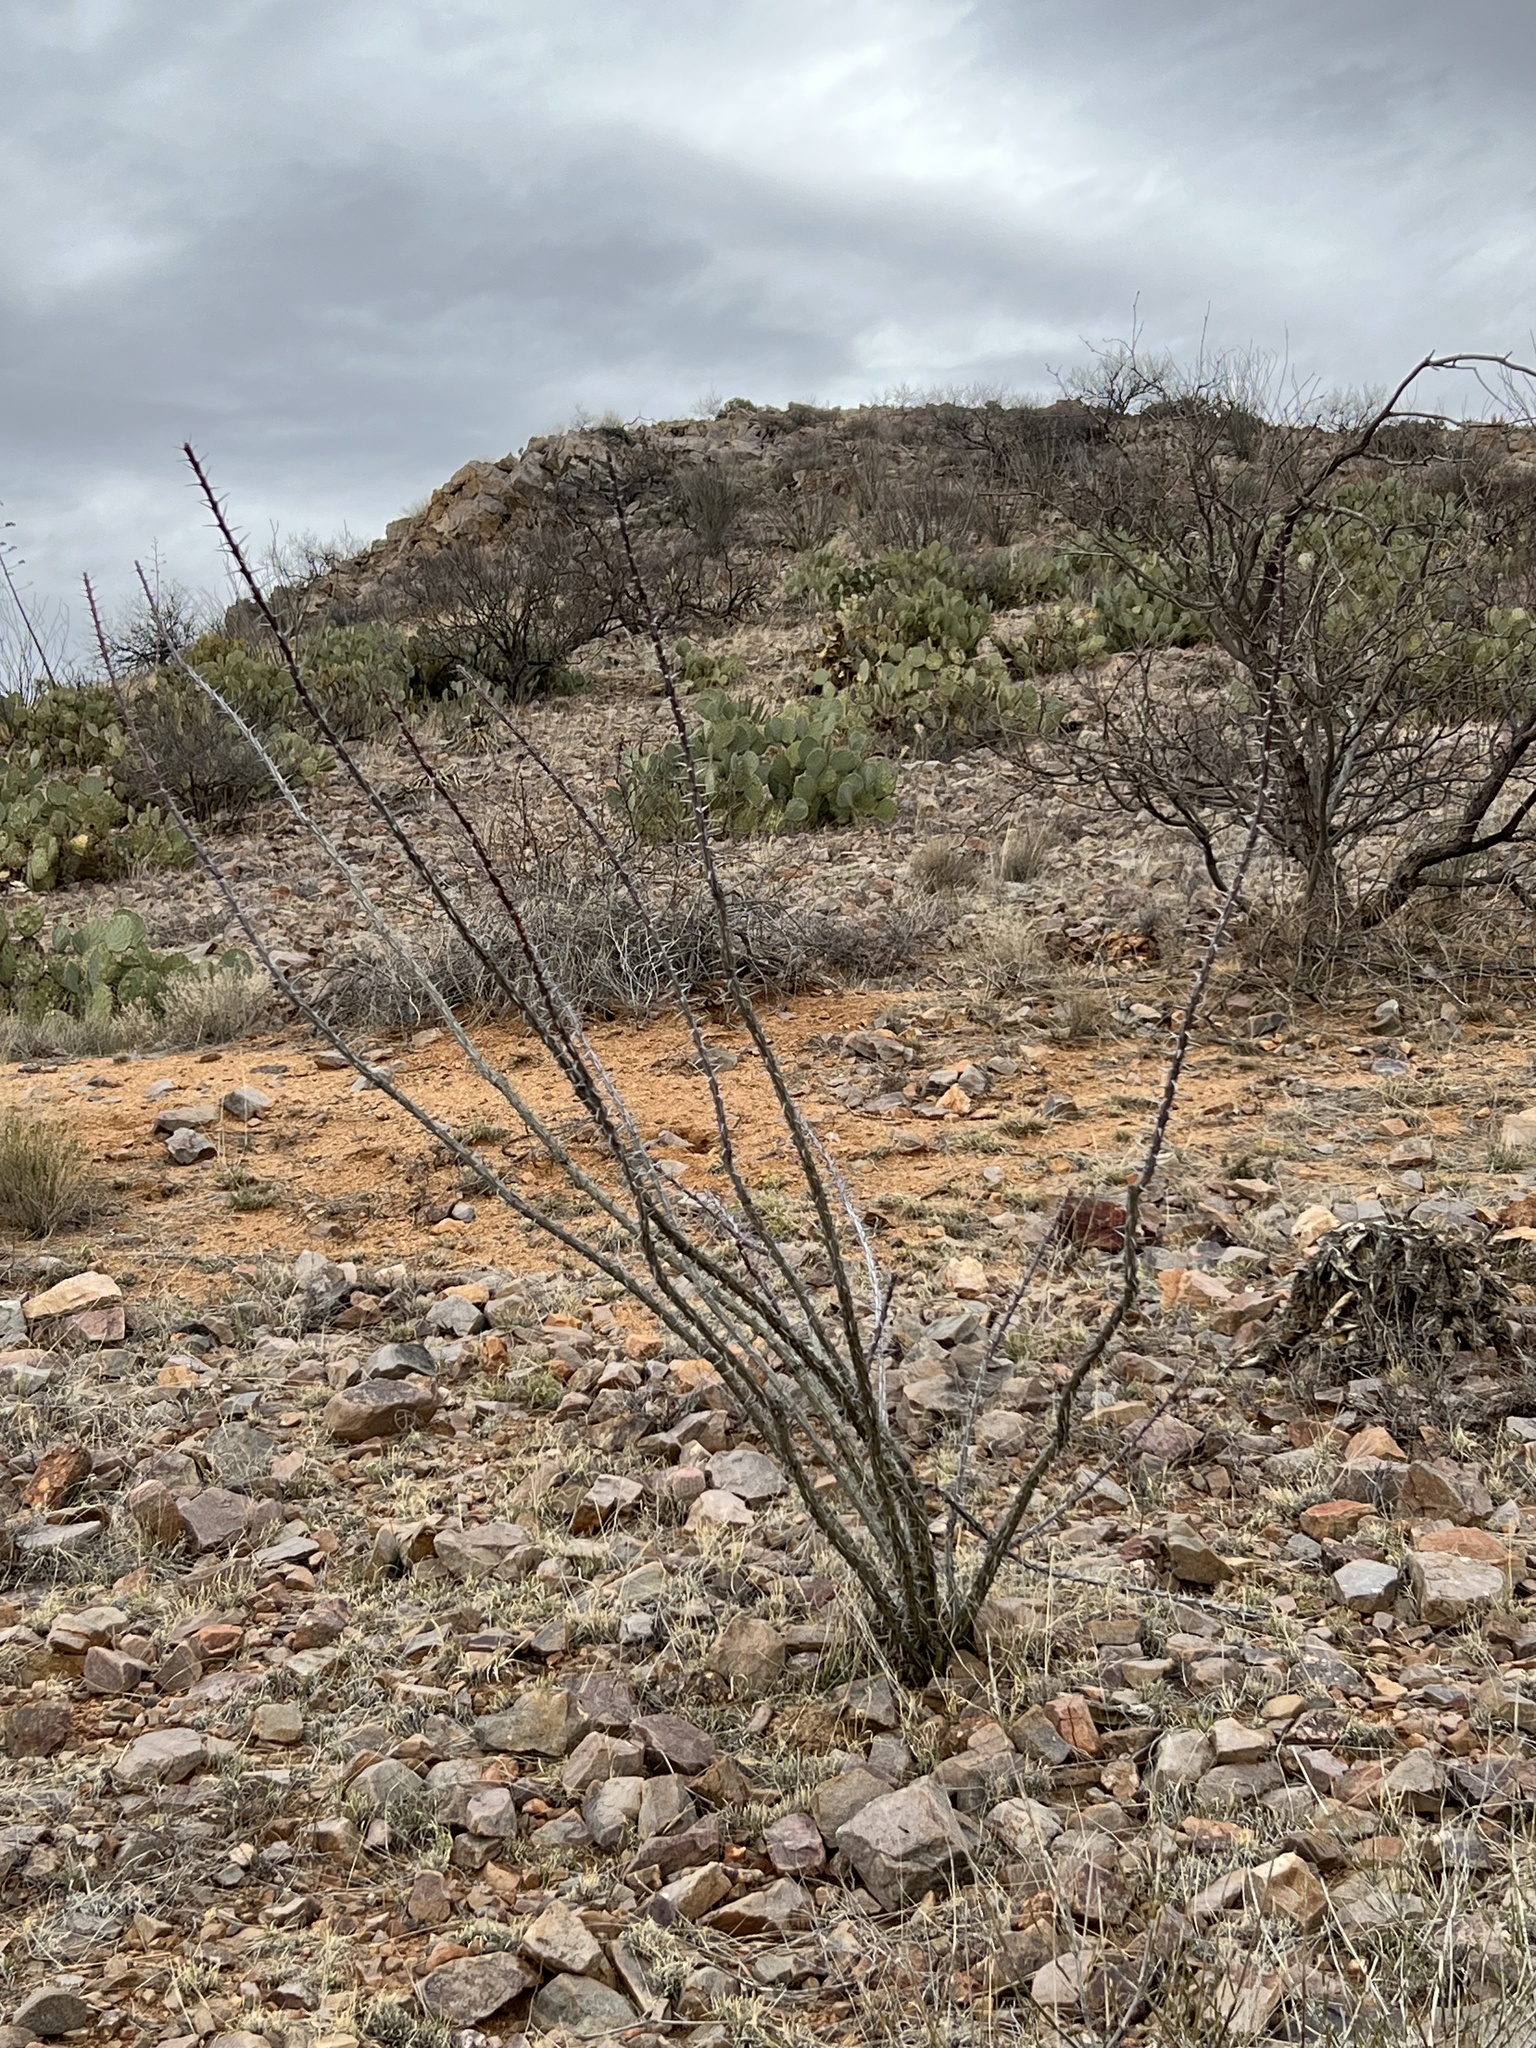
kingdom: Plantae
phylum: Tracheophyta
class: Magnoliopsida
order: Ericales
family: Fouquieriaceae
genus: Fouquieria
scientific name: Fouquieria splendens
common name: Vine-cactus
